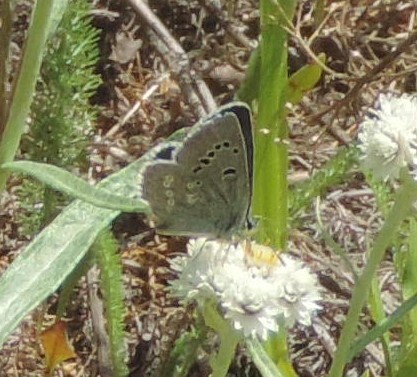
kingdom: Animalia
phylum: Arthropoda
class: Insecta
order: Lepidoptera
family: Lycaenidae
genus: Icaricia
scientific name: Icaricia icarioides
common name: Boisduval's blue
